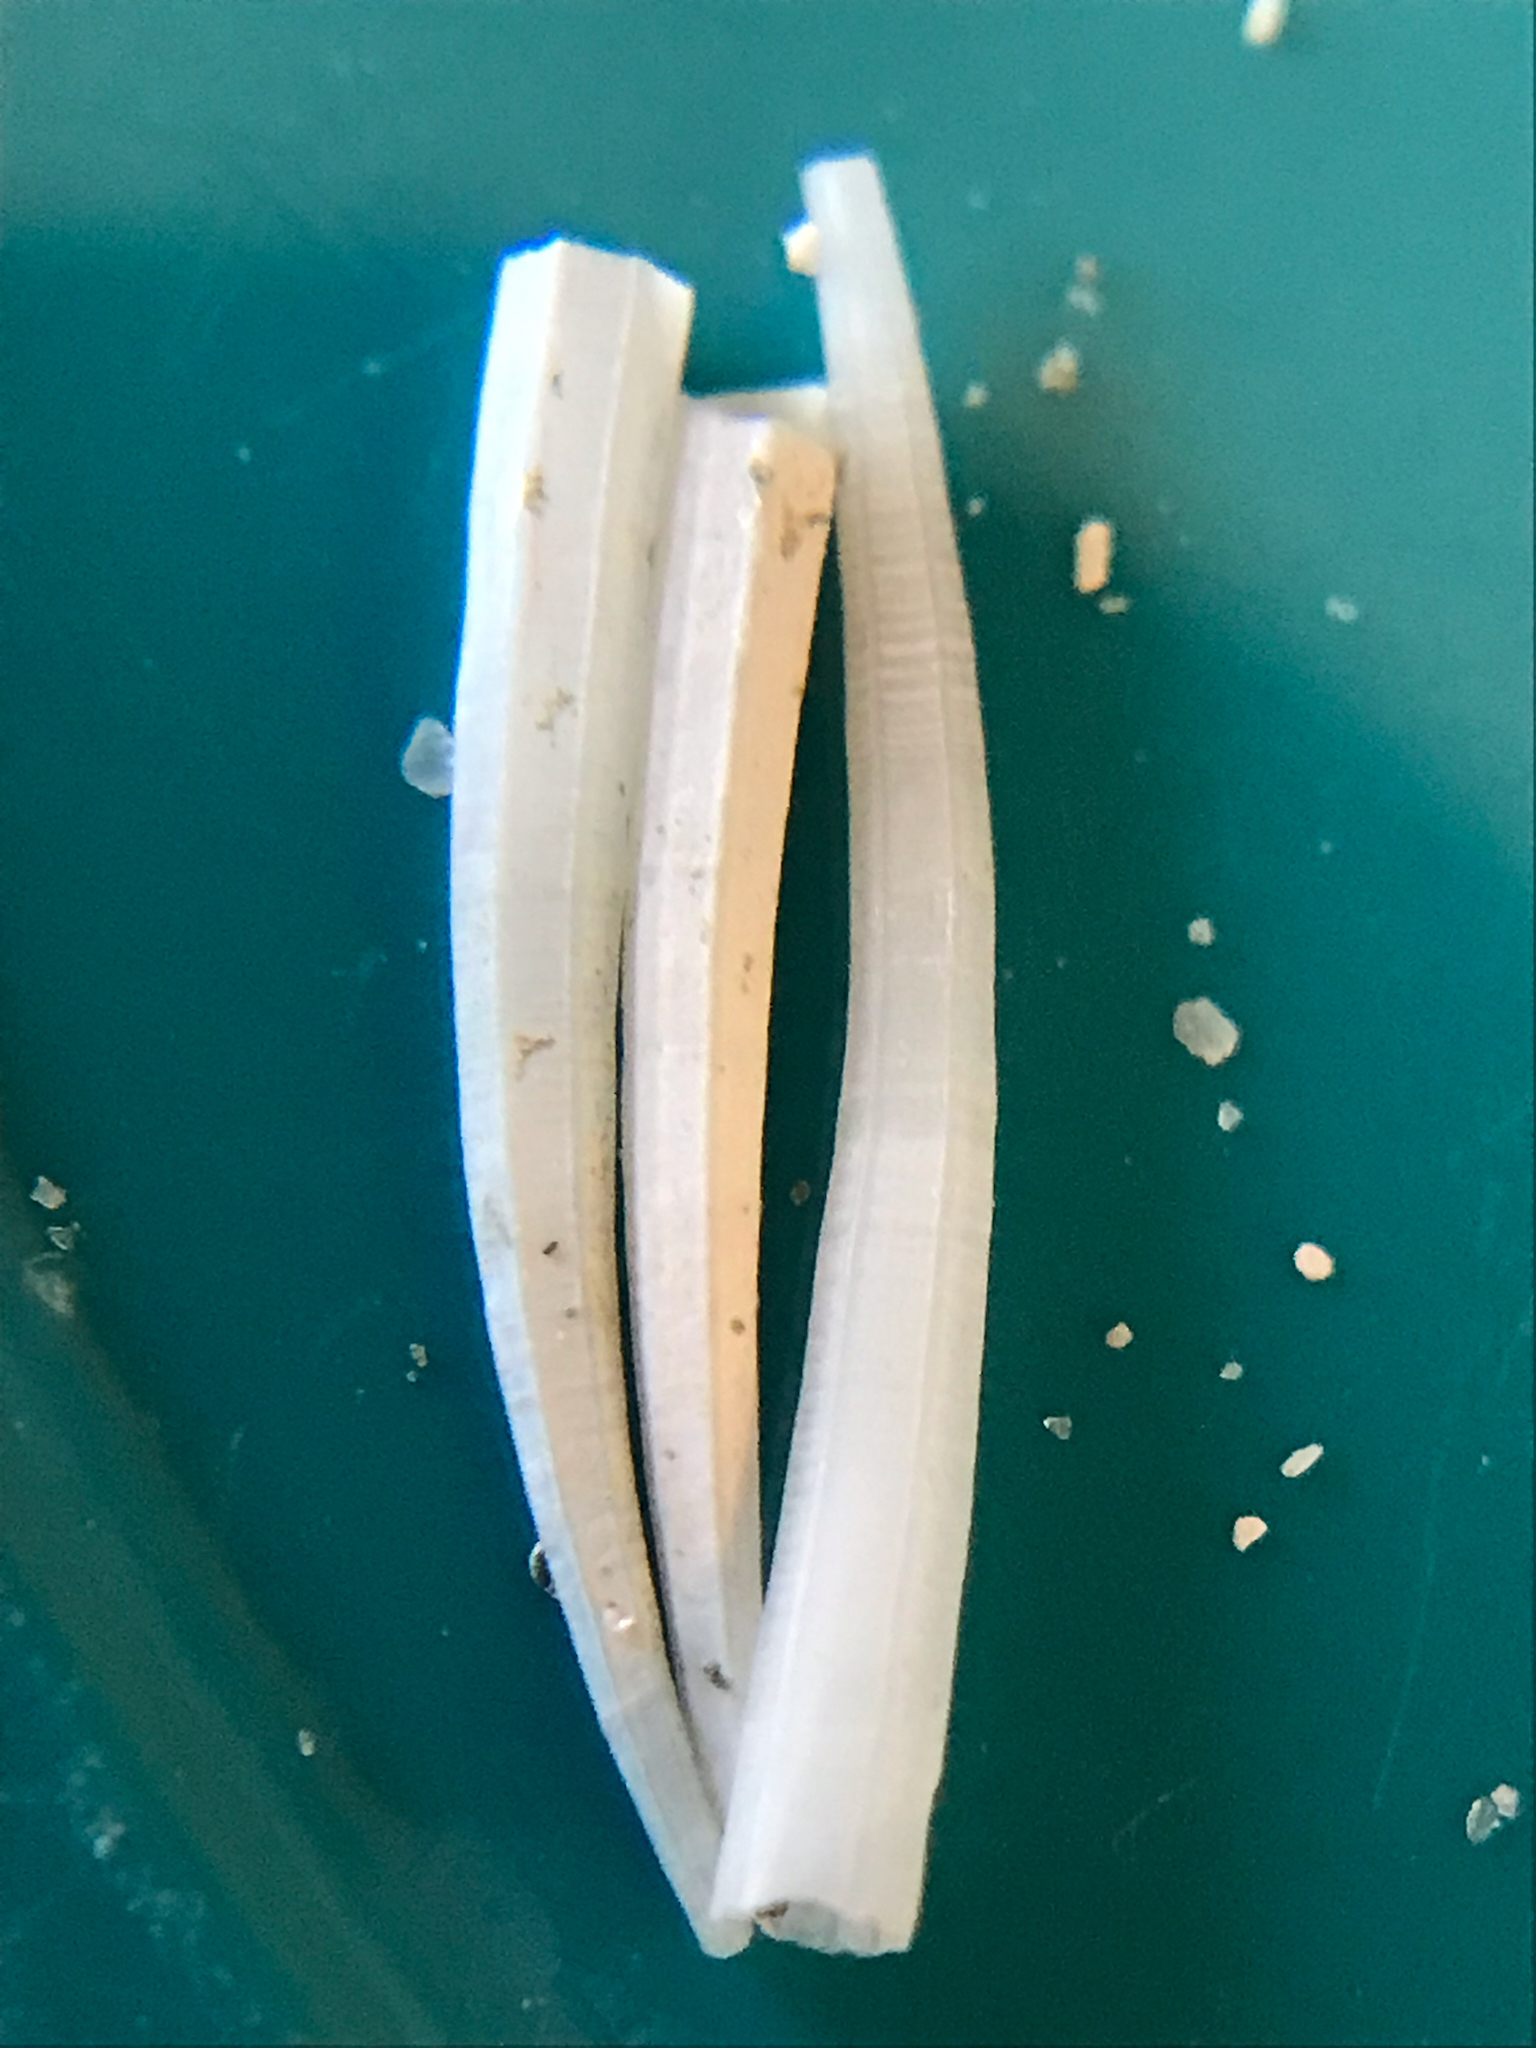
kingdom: Animalia
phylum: Mollusca
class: Scaphopoda
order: Dentaliida
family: Dentaliidae
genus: Paradentalium
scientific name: Paradentalium americanum
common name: American tuskshell
